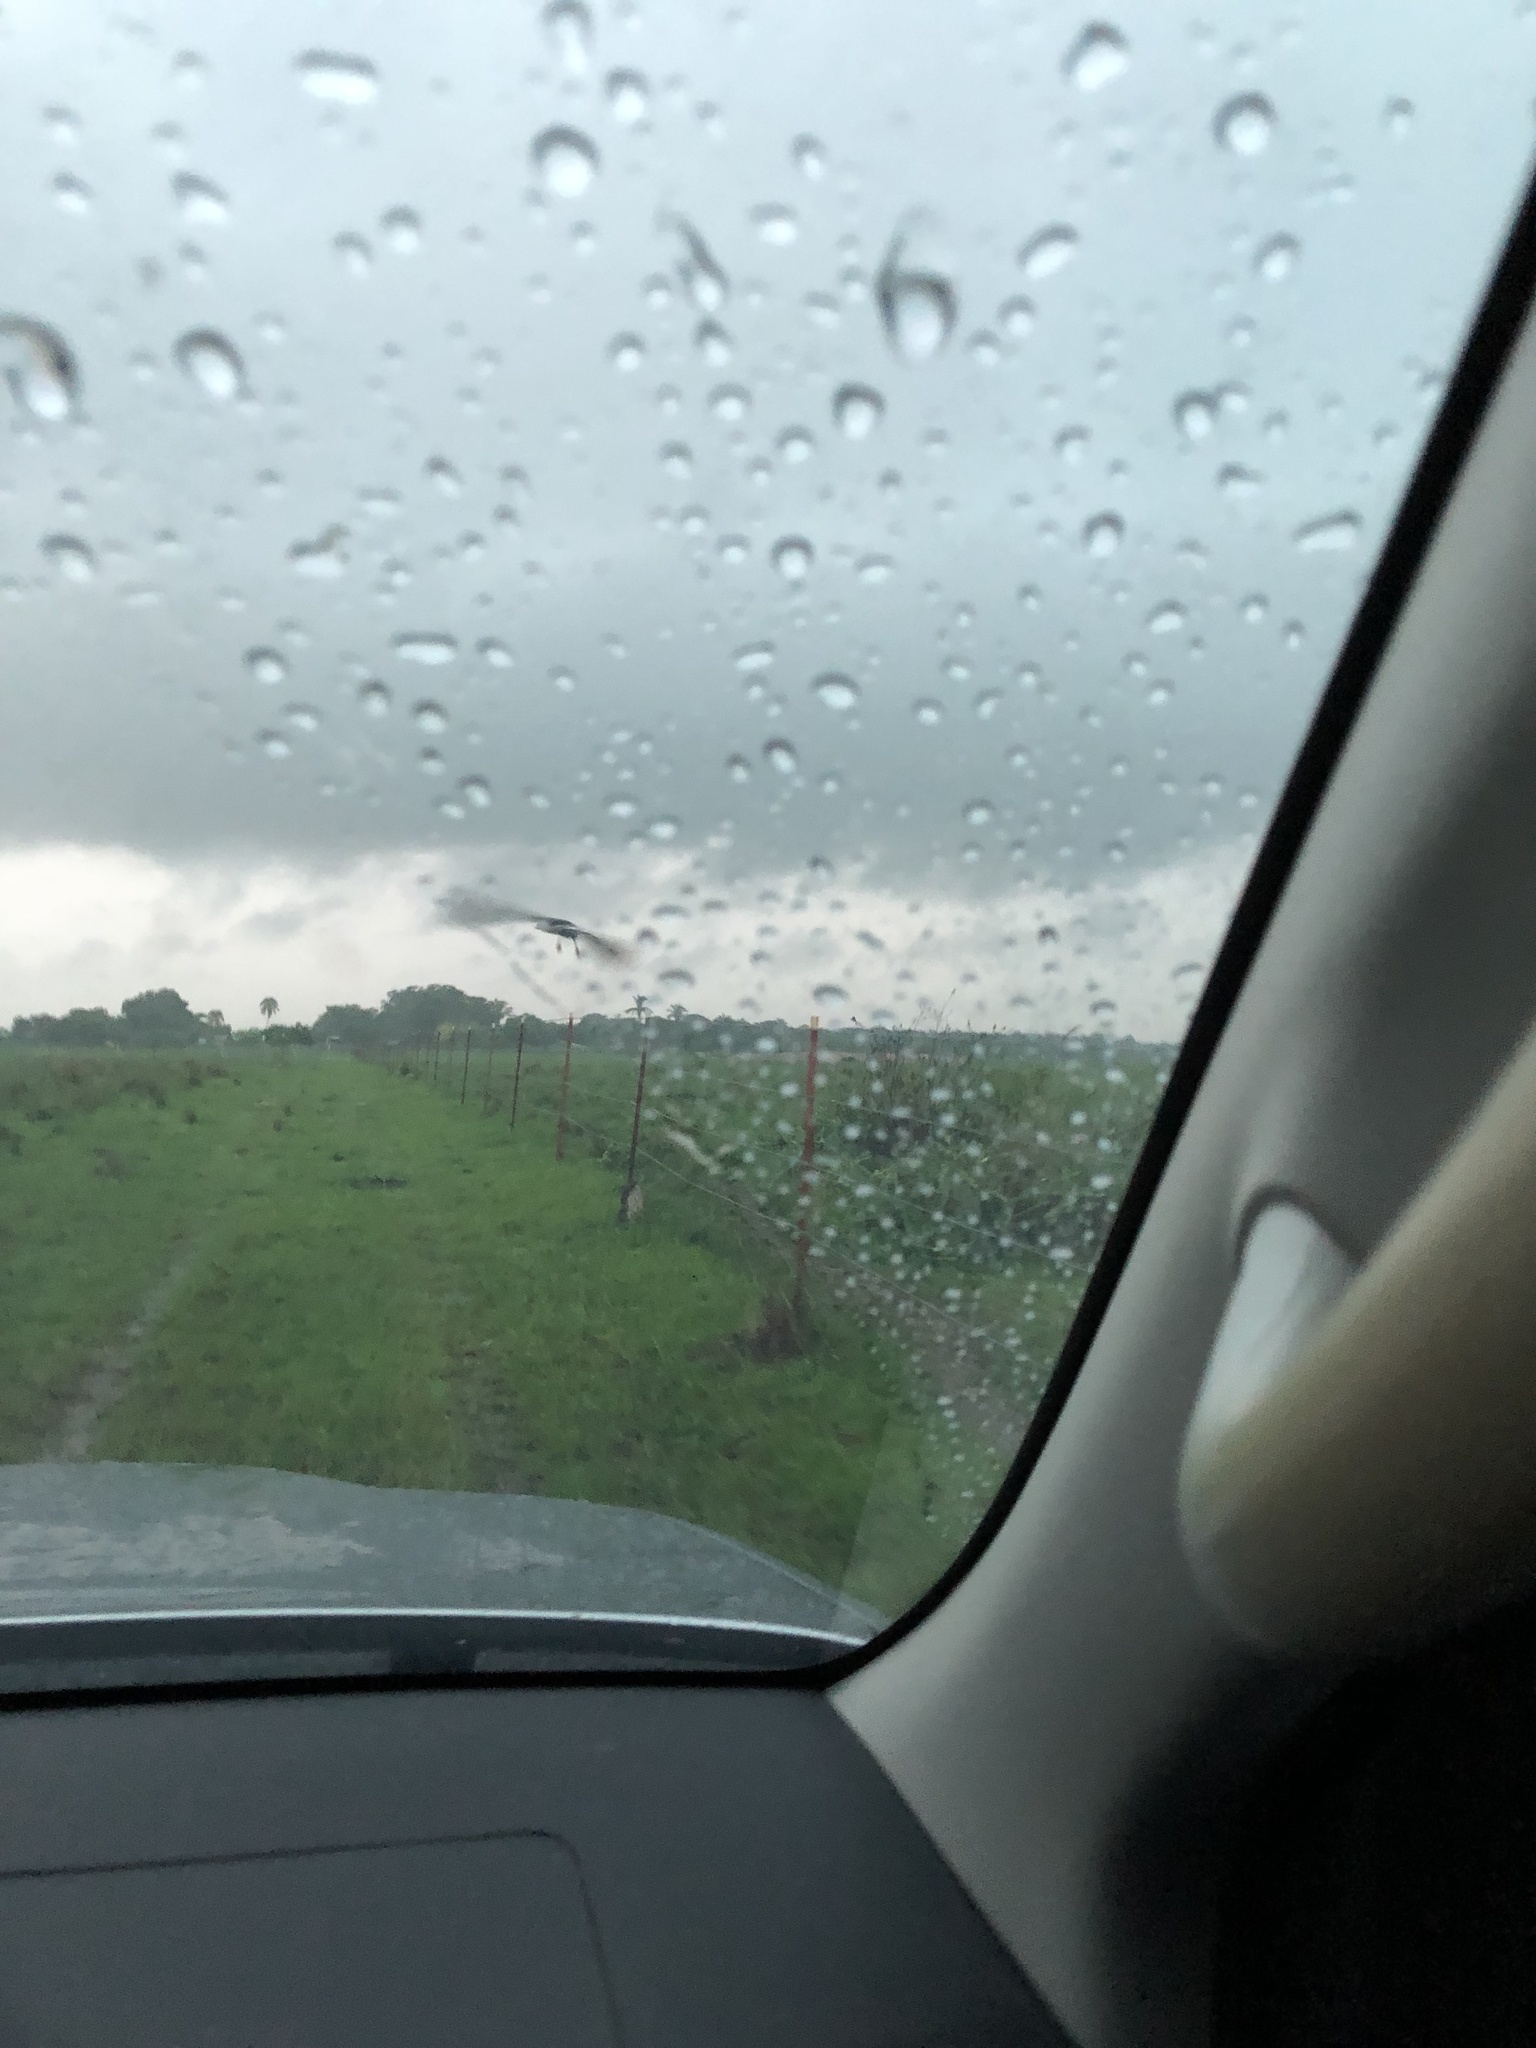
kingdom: Animalia
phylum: Chordata
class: Aves
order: Accipitriformes
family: Accipitridae
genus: Busarellus
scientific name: Busarellus nigricollis
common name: Black-collared hawk
